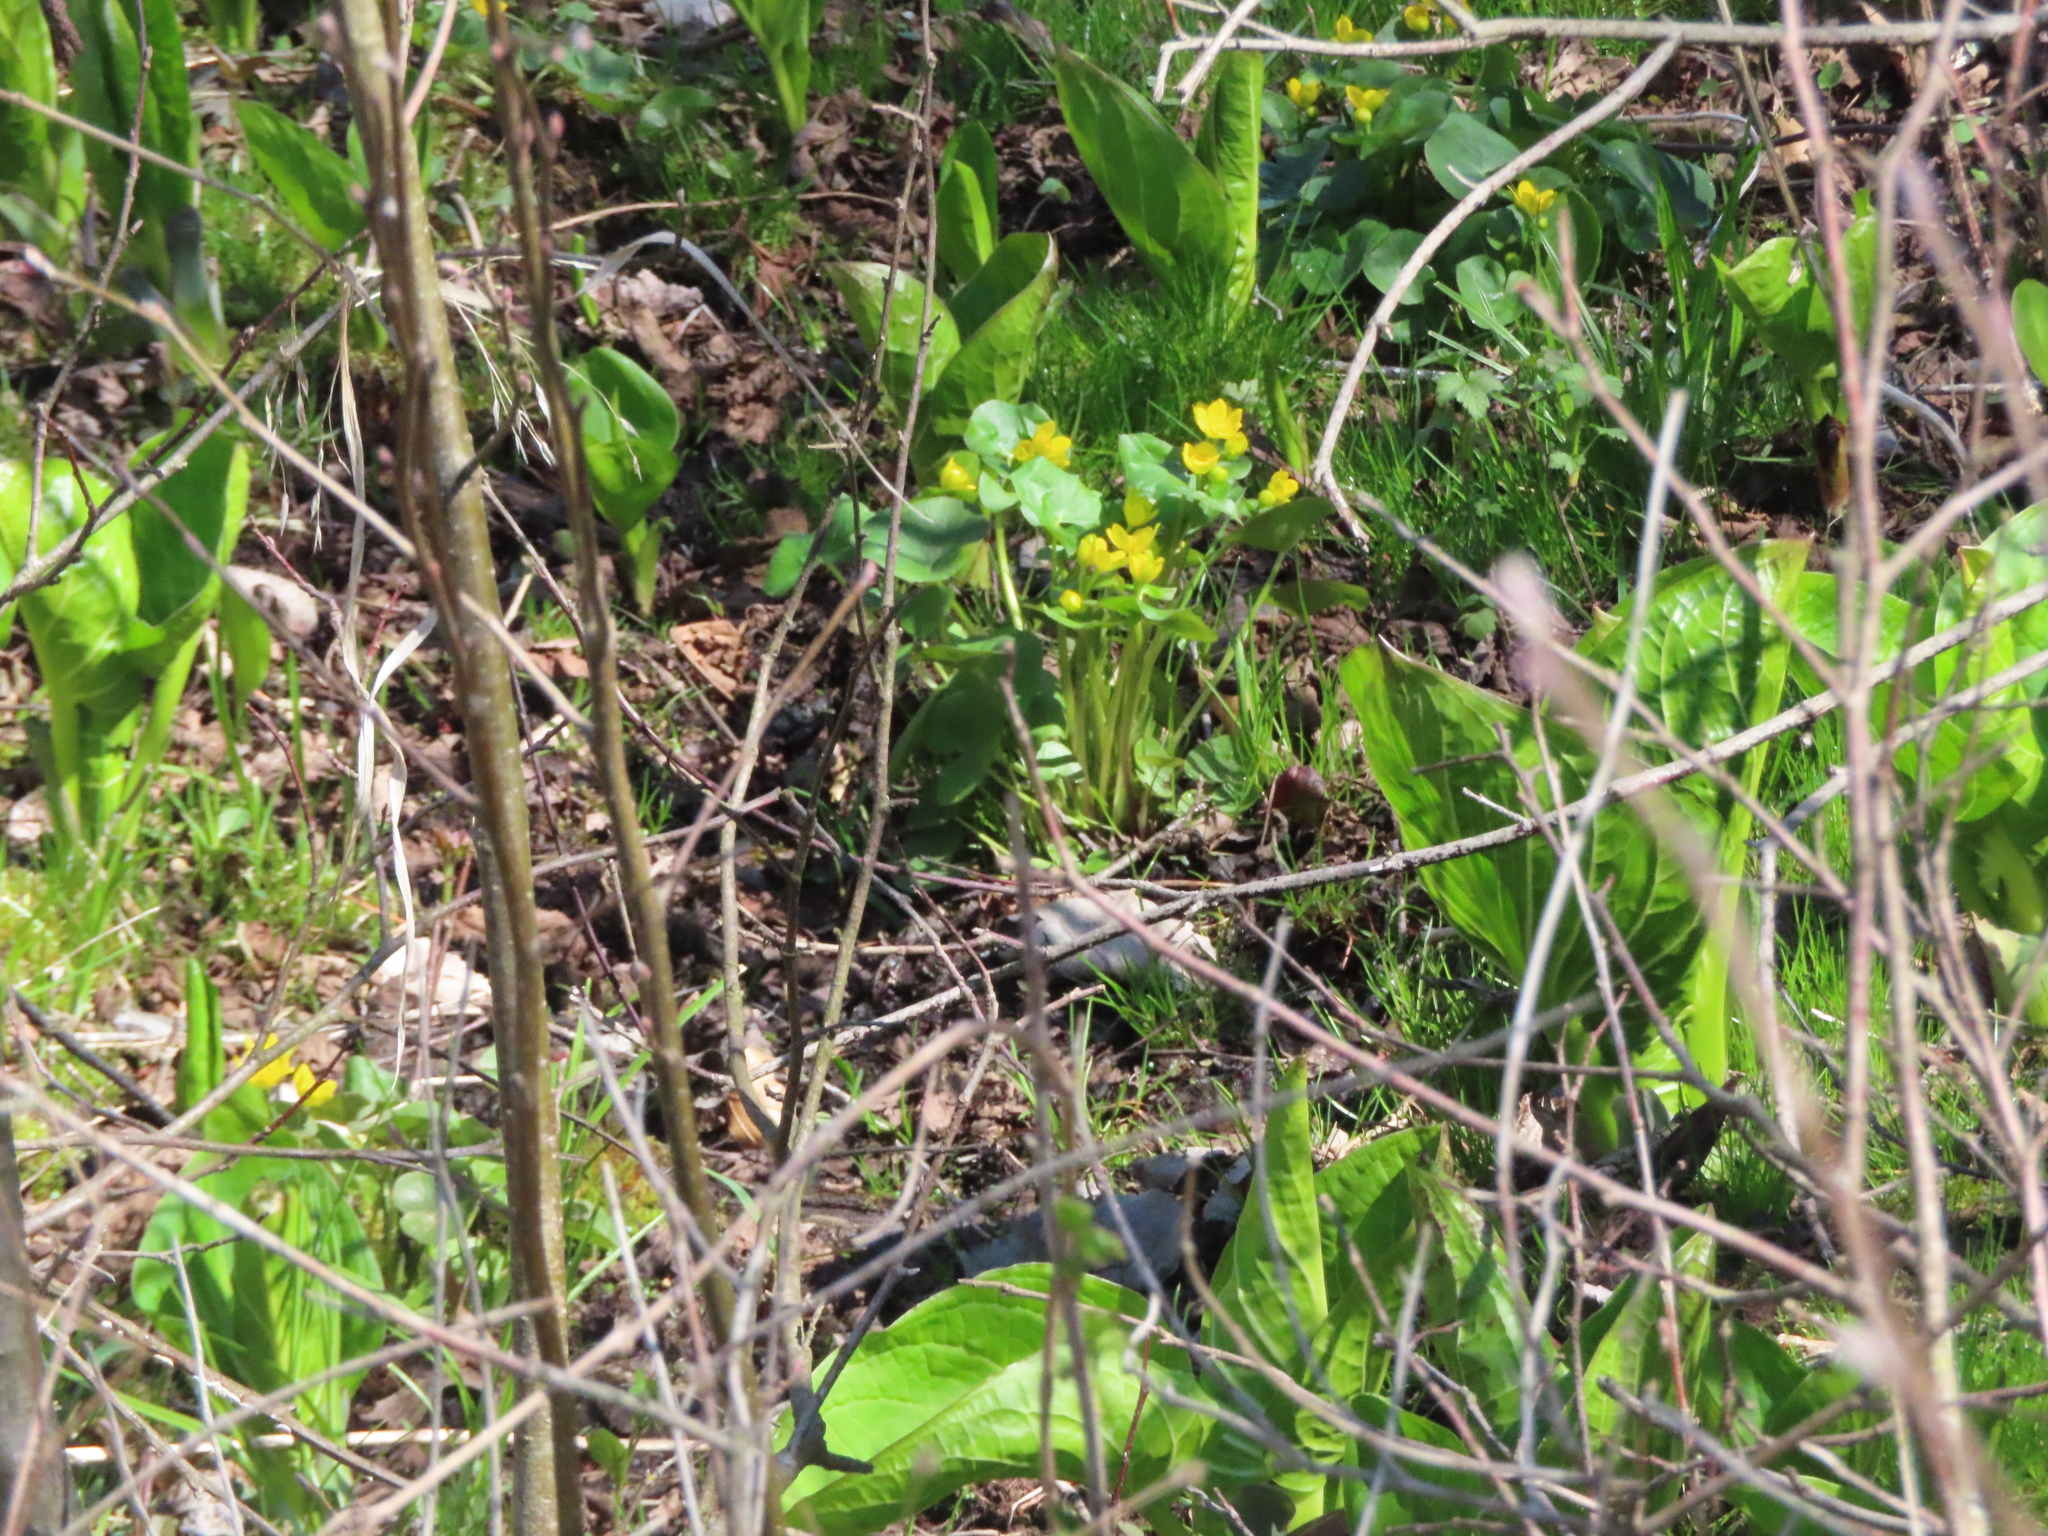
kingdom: Plantae
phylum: Tracheophyta
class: Magnoliopsida
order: Ranunculales
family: Ranunculaceae
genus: Caltha
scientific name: Caltha palustris
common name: Marsh marigold
